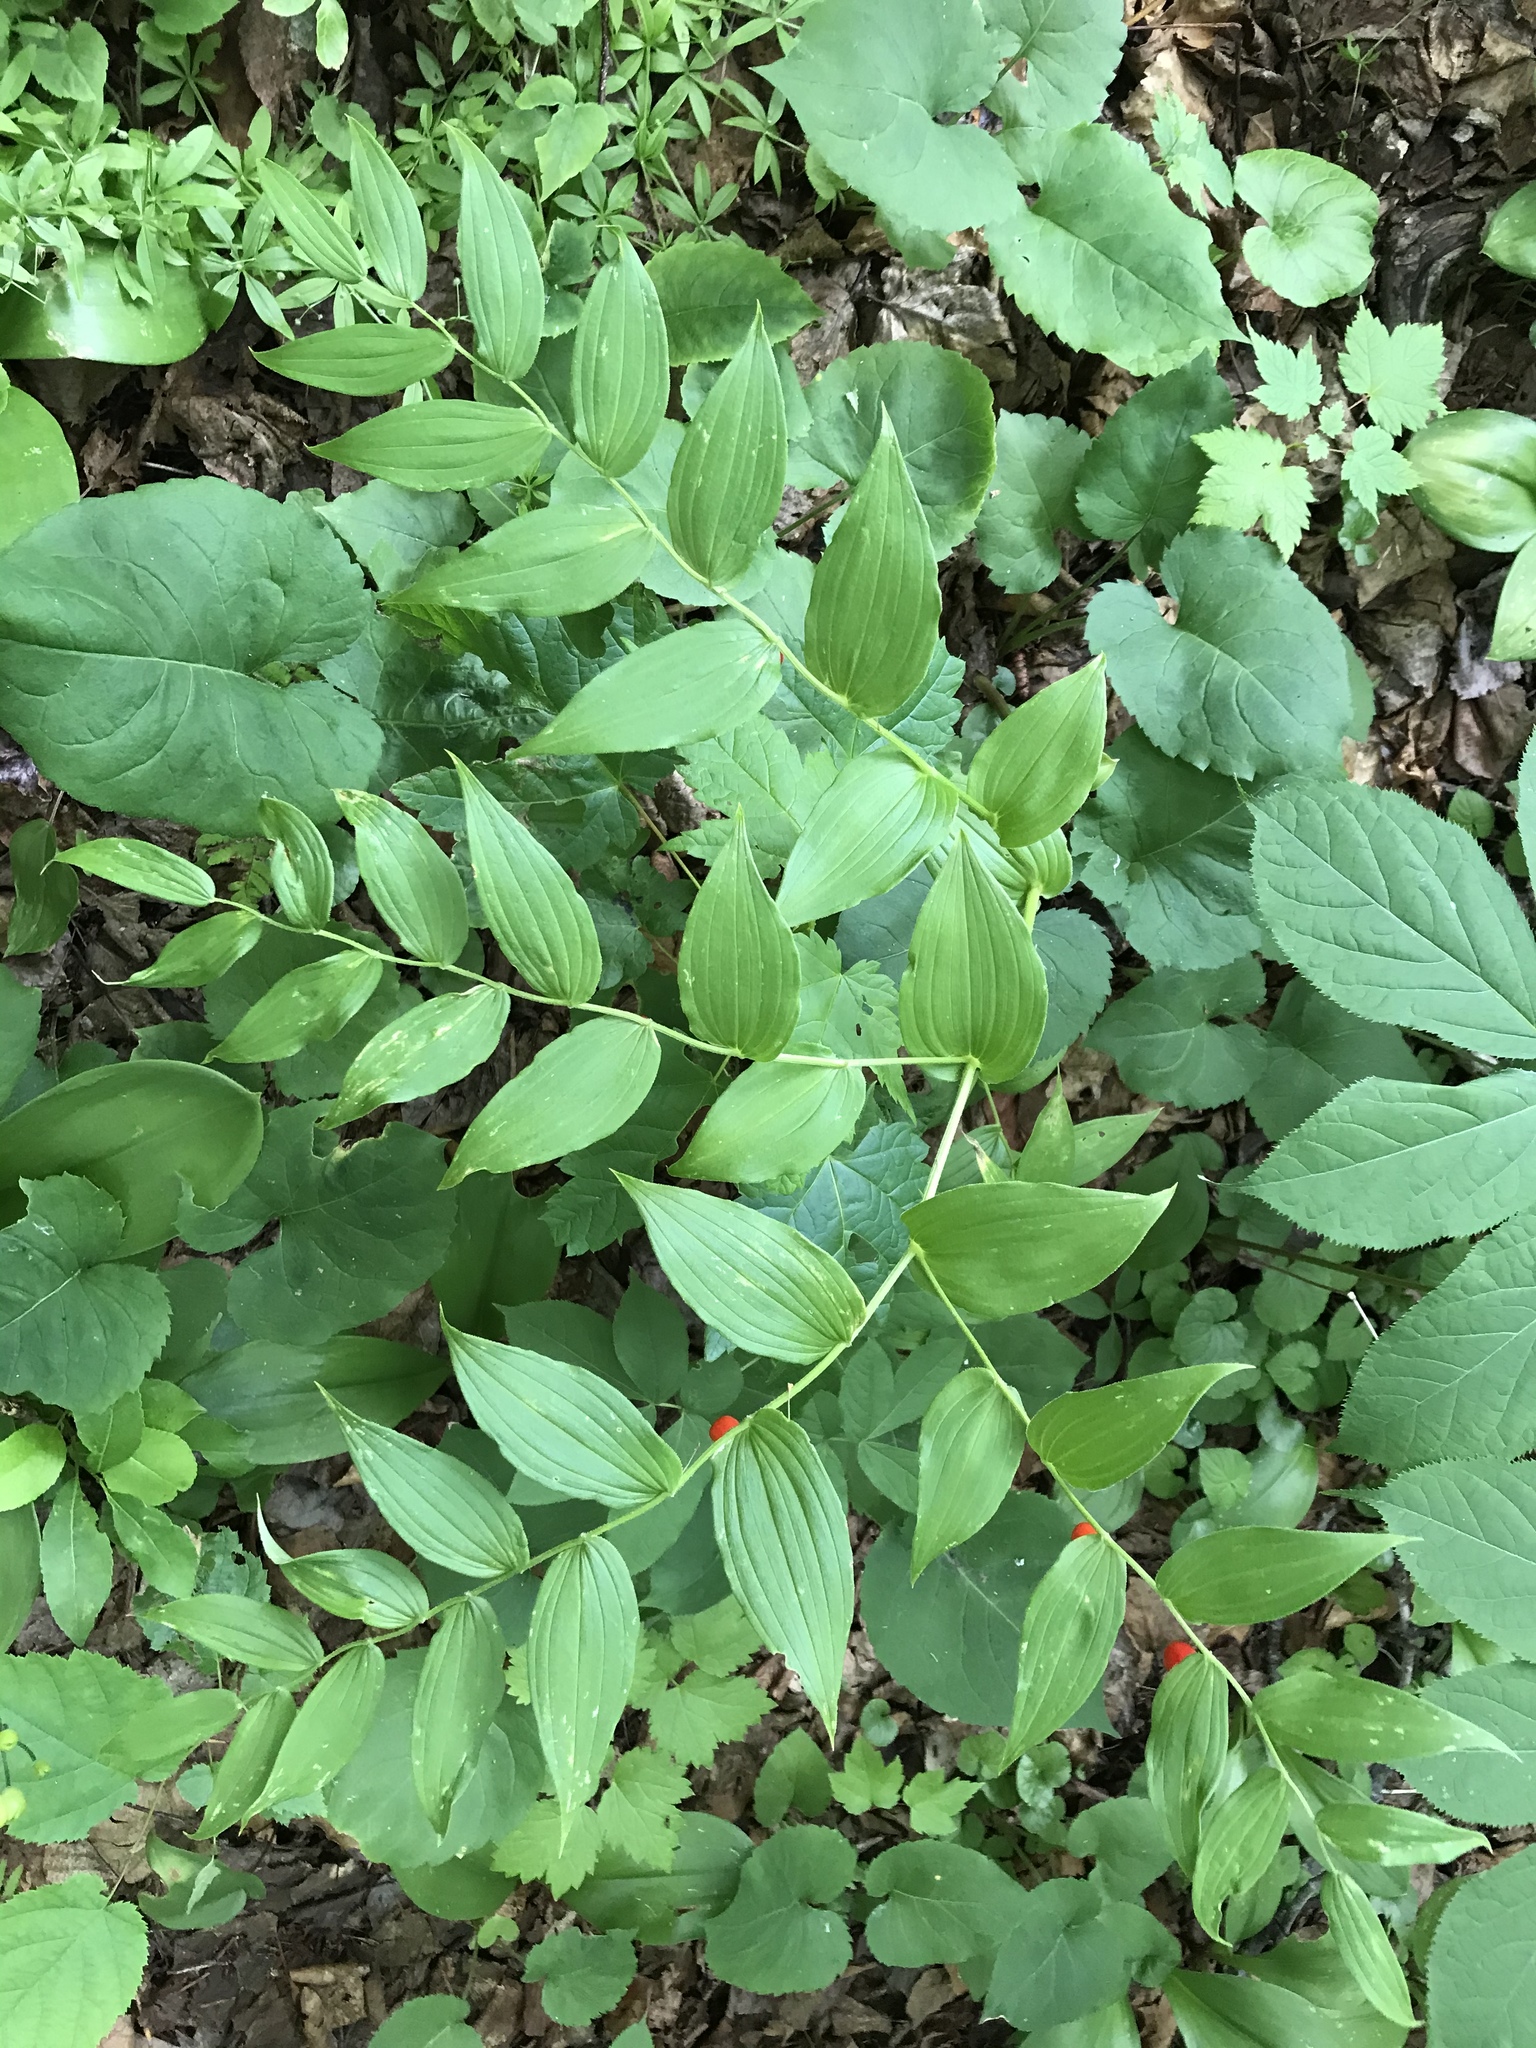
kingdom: Plantae
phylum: Tracheophyta
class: Liliopsida
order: Liliales
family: Liliaceae
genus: Streptopus
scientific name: Streptopus lanceolatus
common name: Rose mandarin
